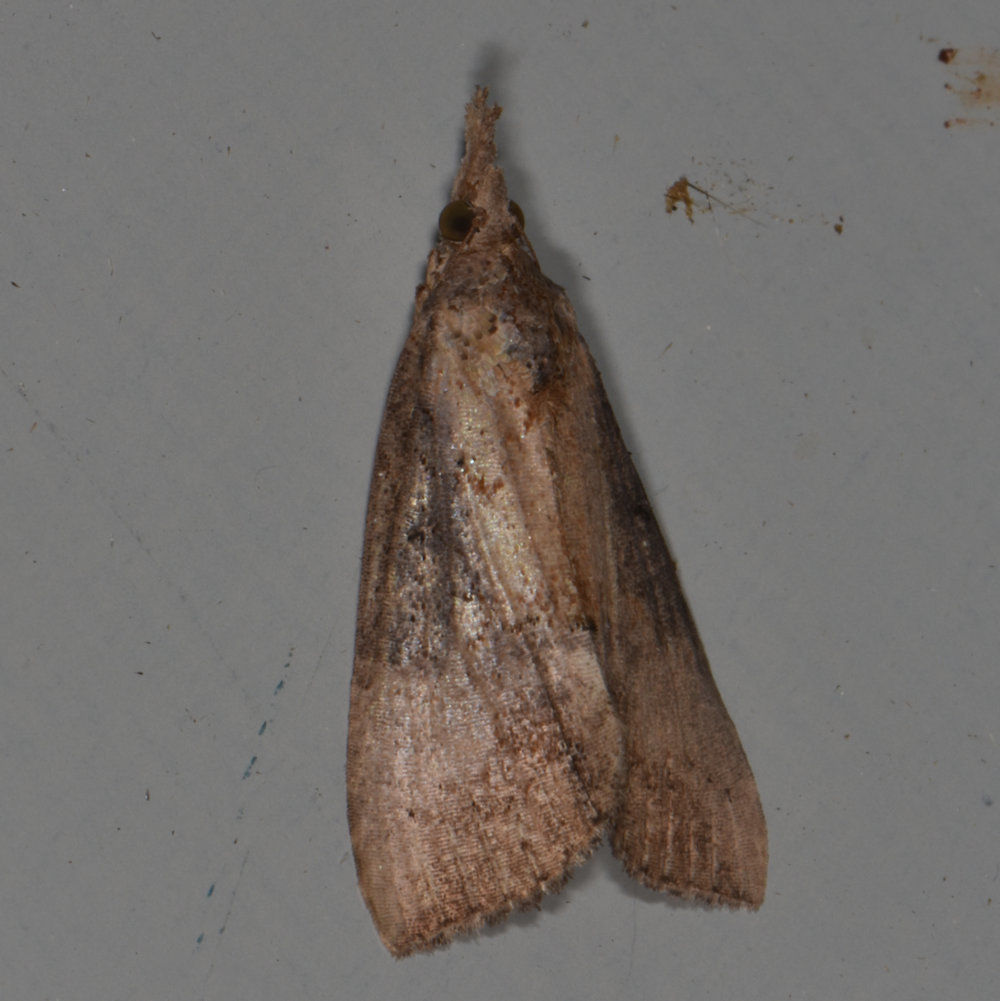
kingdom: Animalia
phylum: Arthropoda
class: Insecta
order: Lepidoptera
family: Erebidae
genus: Hypena
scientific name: Hypena scabra
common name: Green cloverworm
